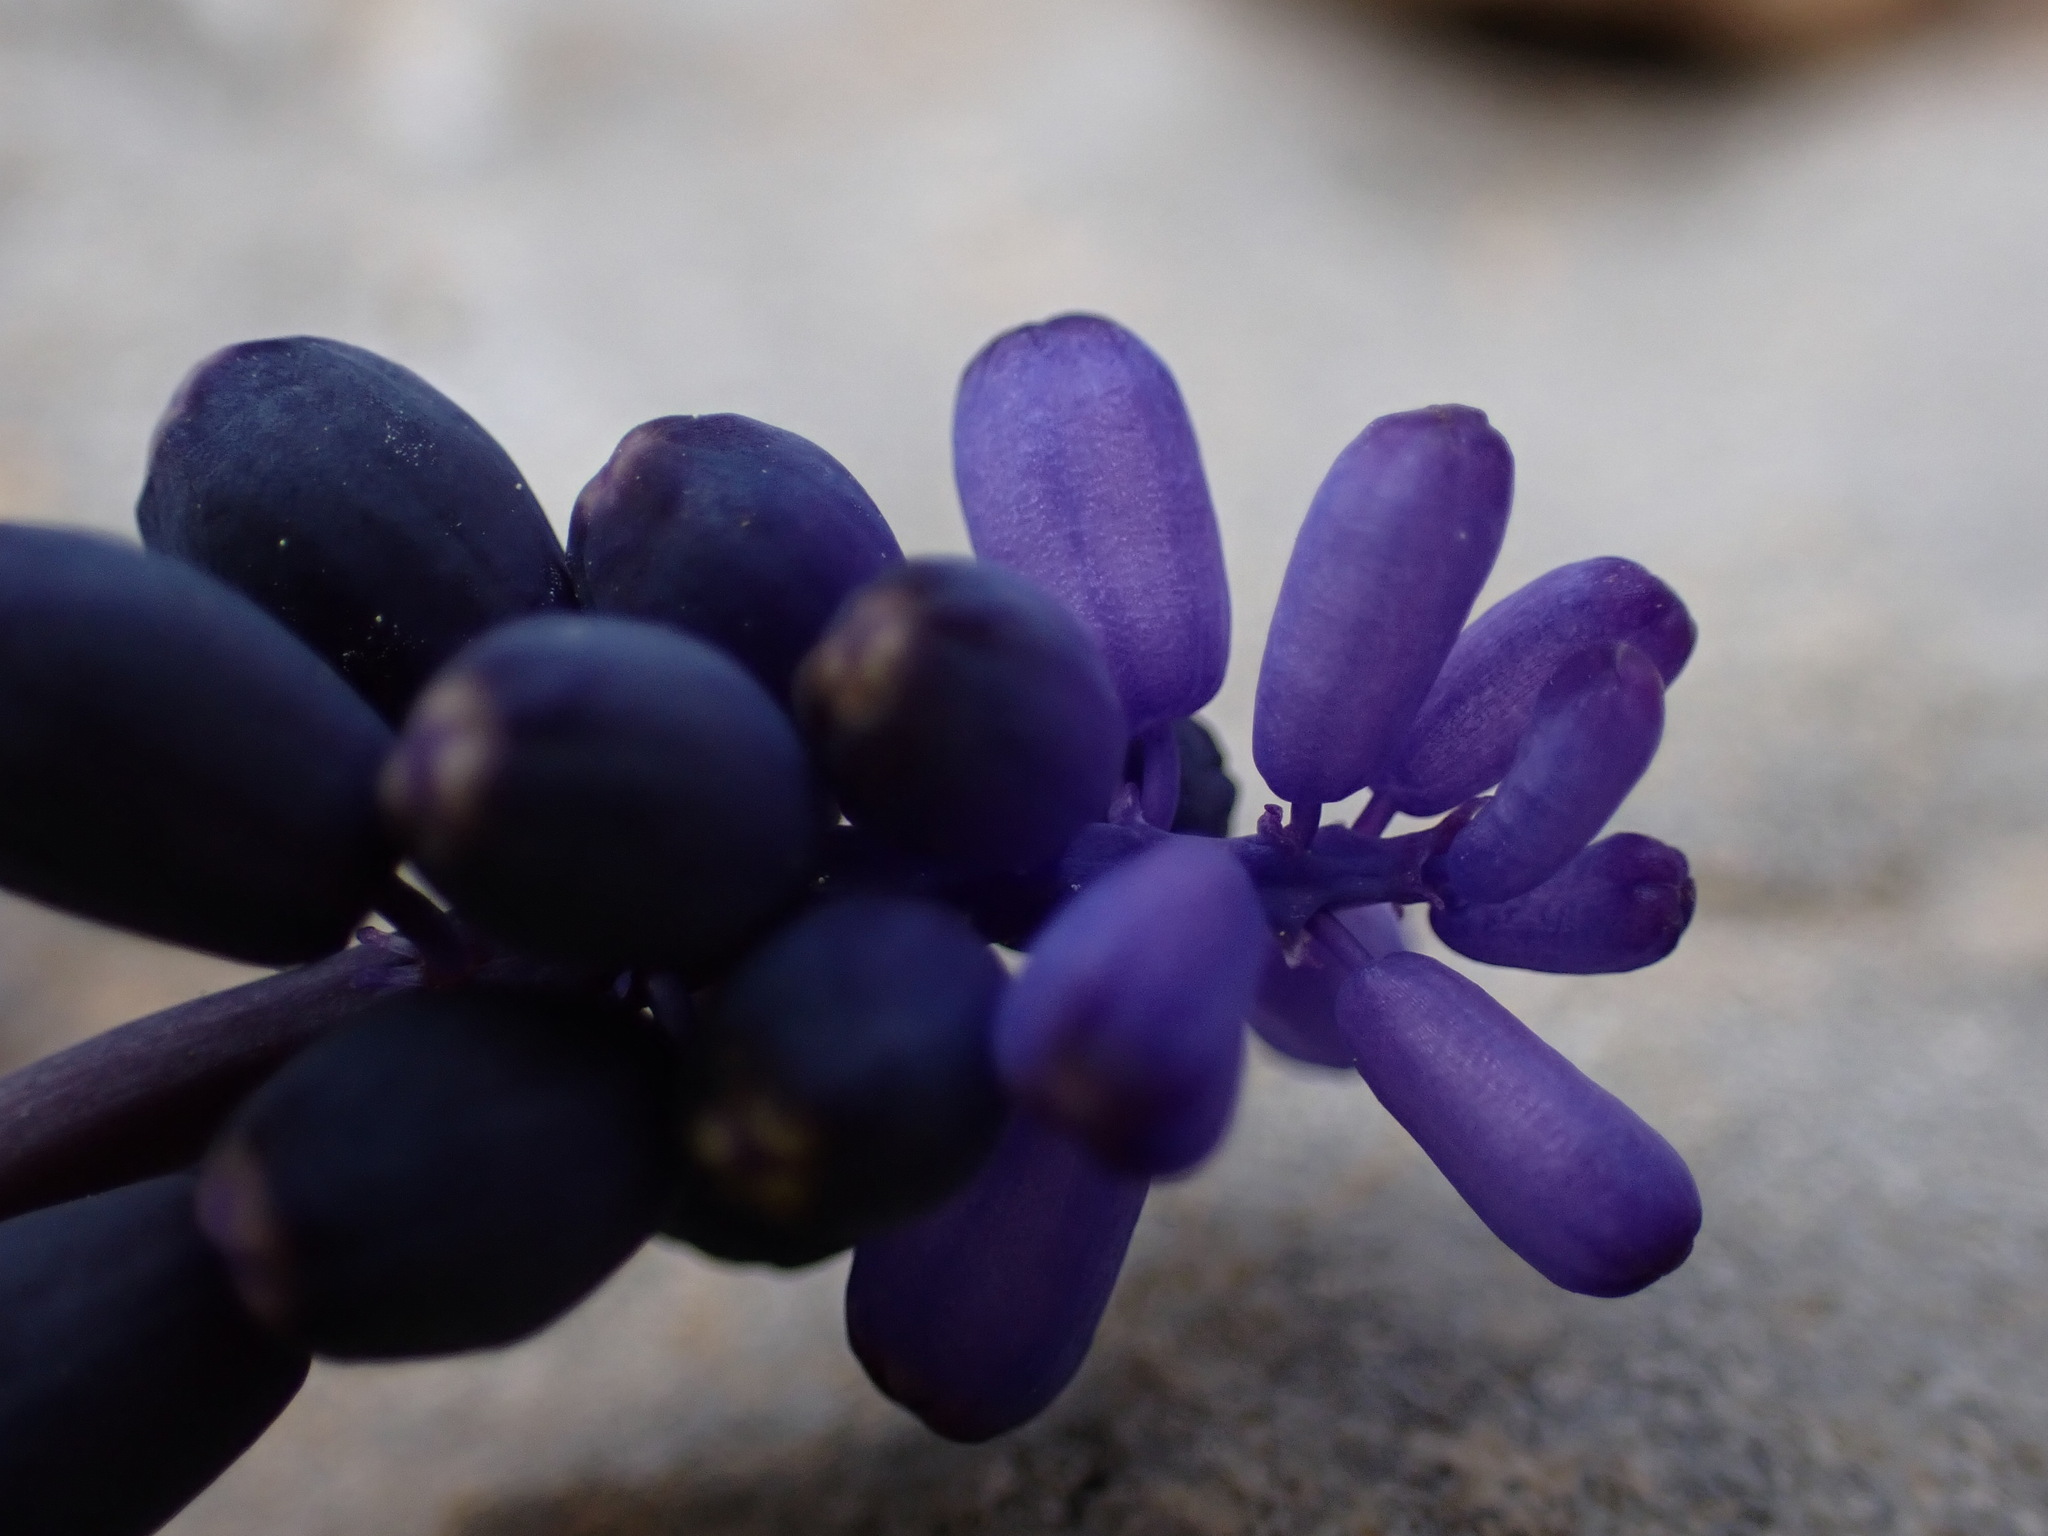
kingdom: Plantae
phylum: Tracheophyta
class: Liliopsida
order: Asparagales
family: Asparagaceae
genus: Muscari
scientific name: Muscari neglectum
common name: Grape-hyacinth
